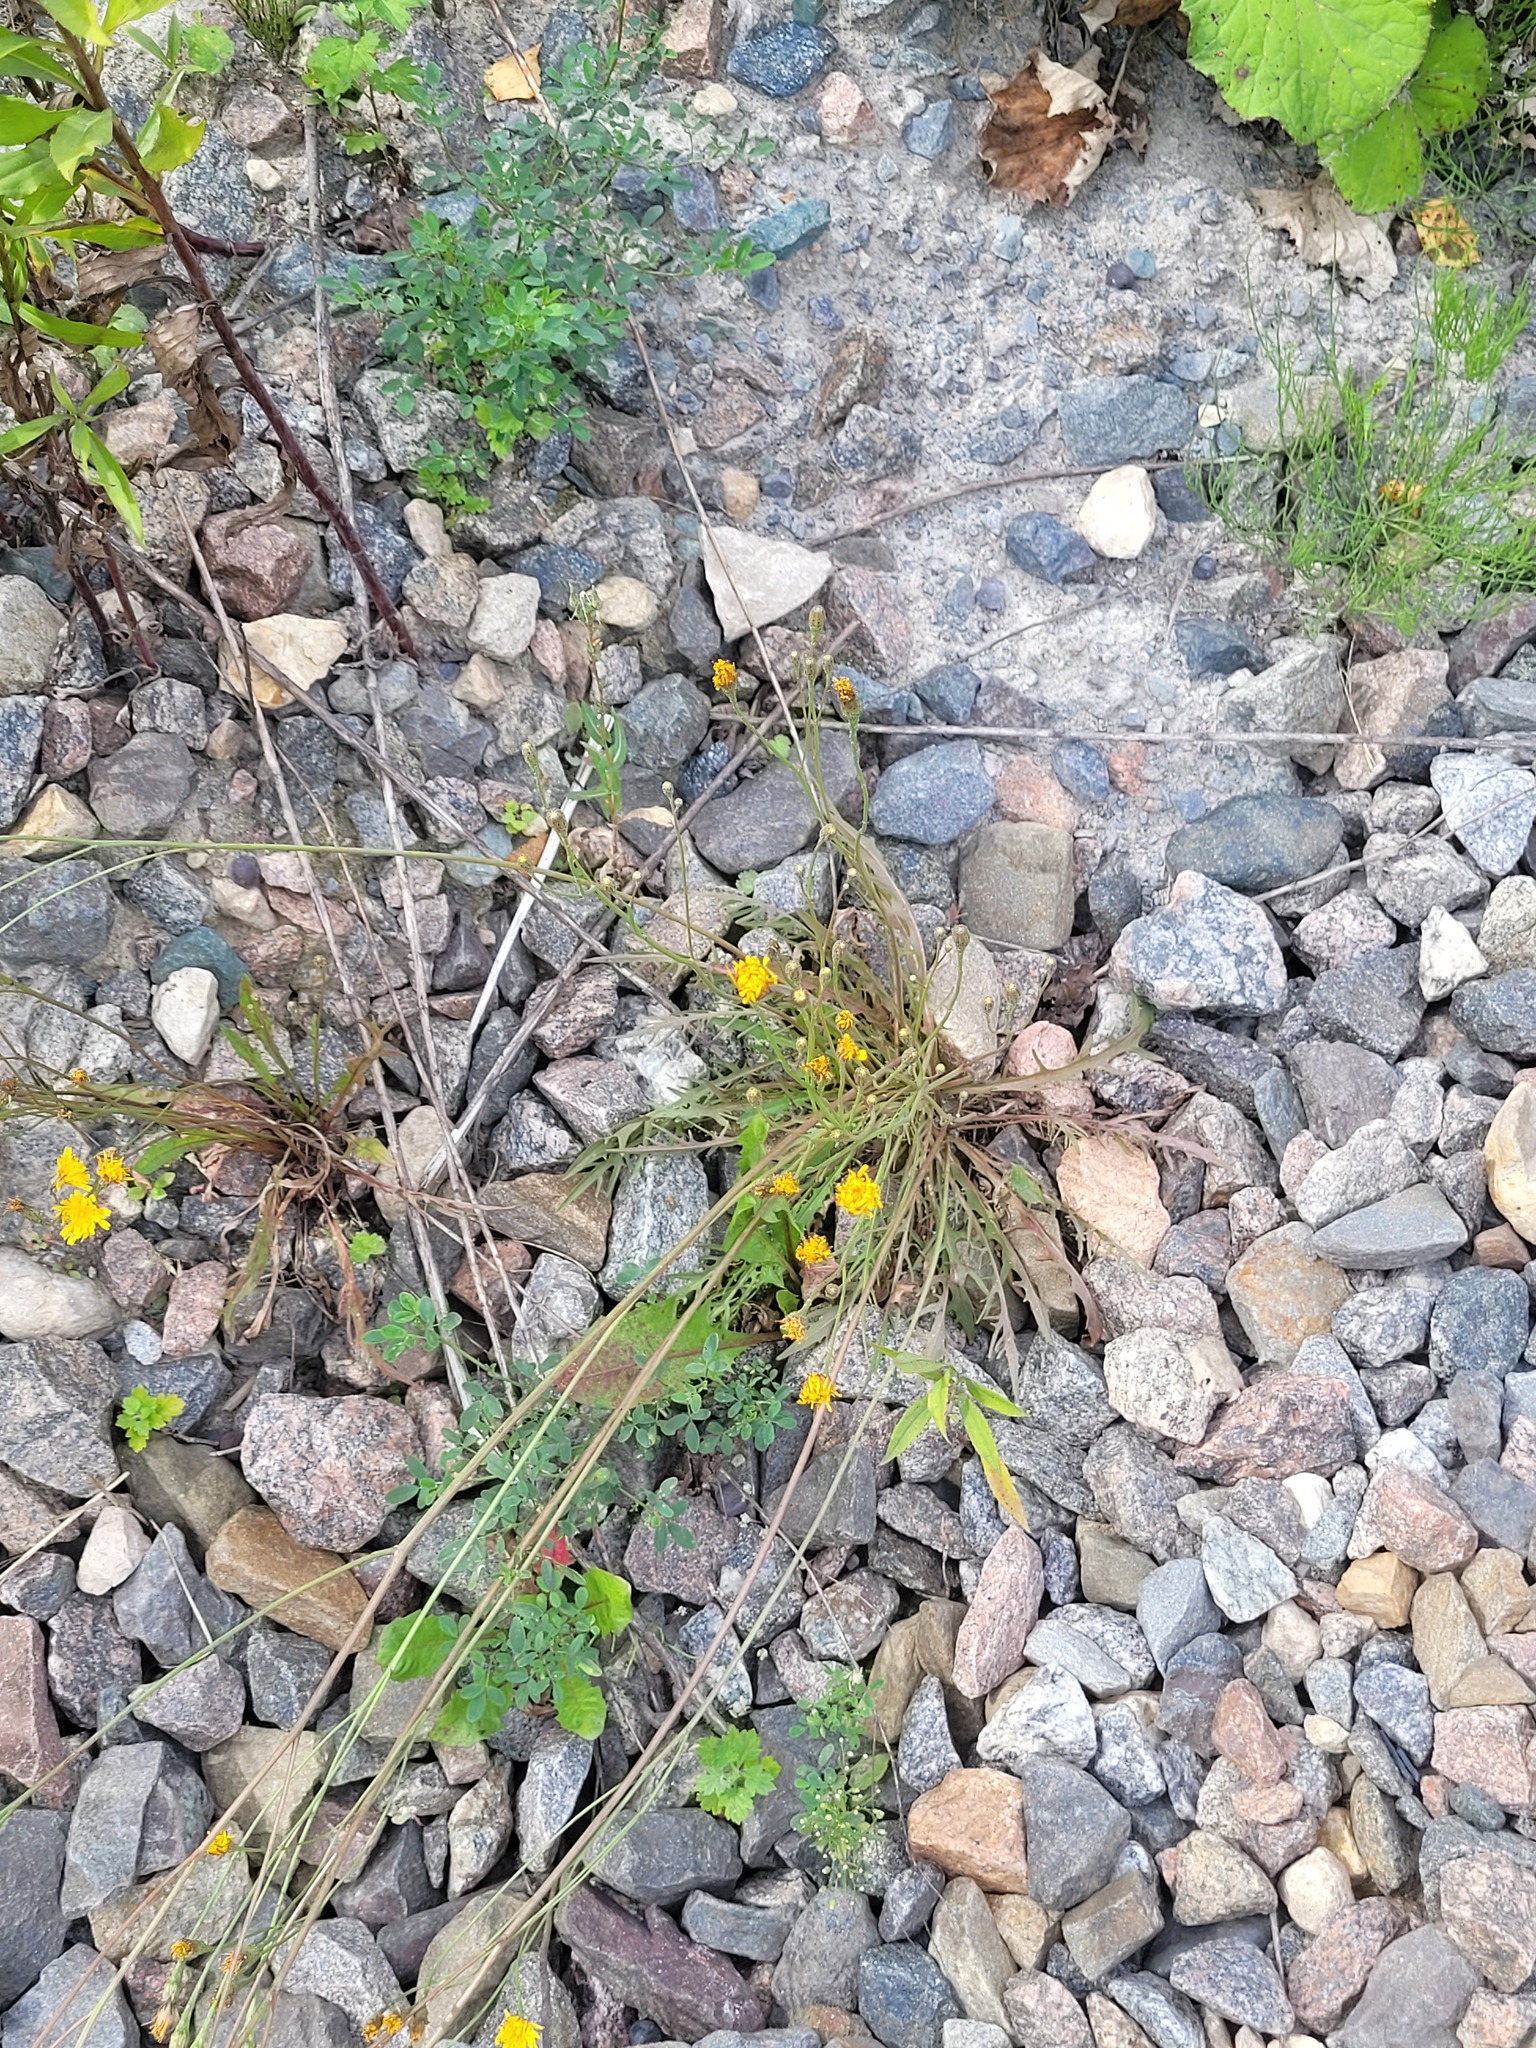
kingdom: Plantae
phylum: Tracheophyta
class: Magnoliopsida
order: Asterales
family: Asteraceae
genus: Scorzoneroides
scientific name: Scorzoneroides autumnalis
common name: Autumn hawkbit
